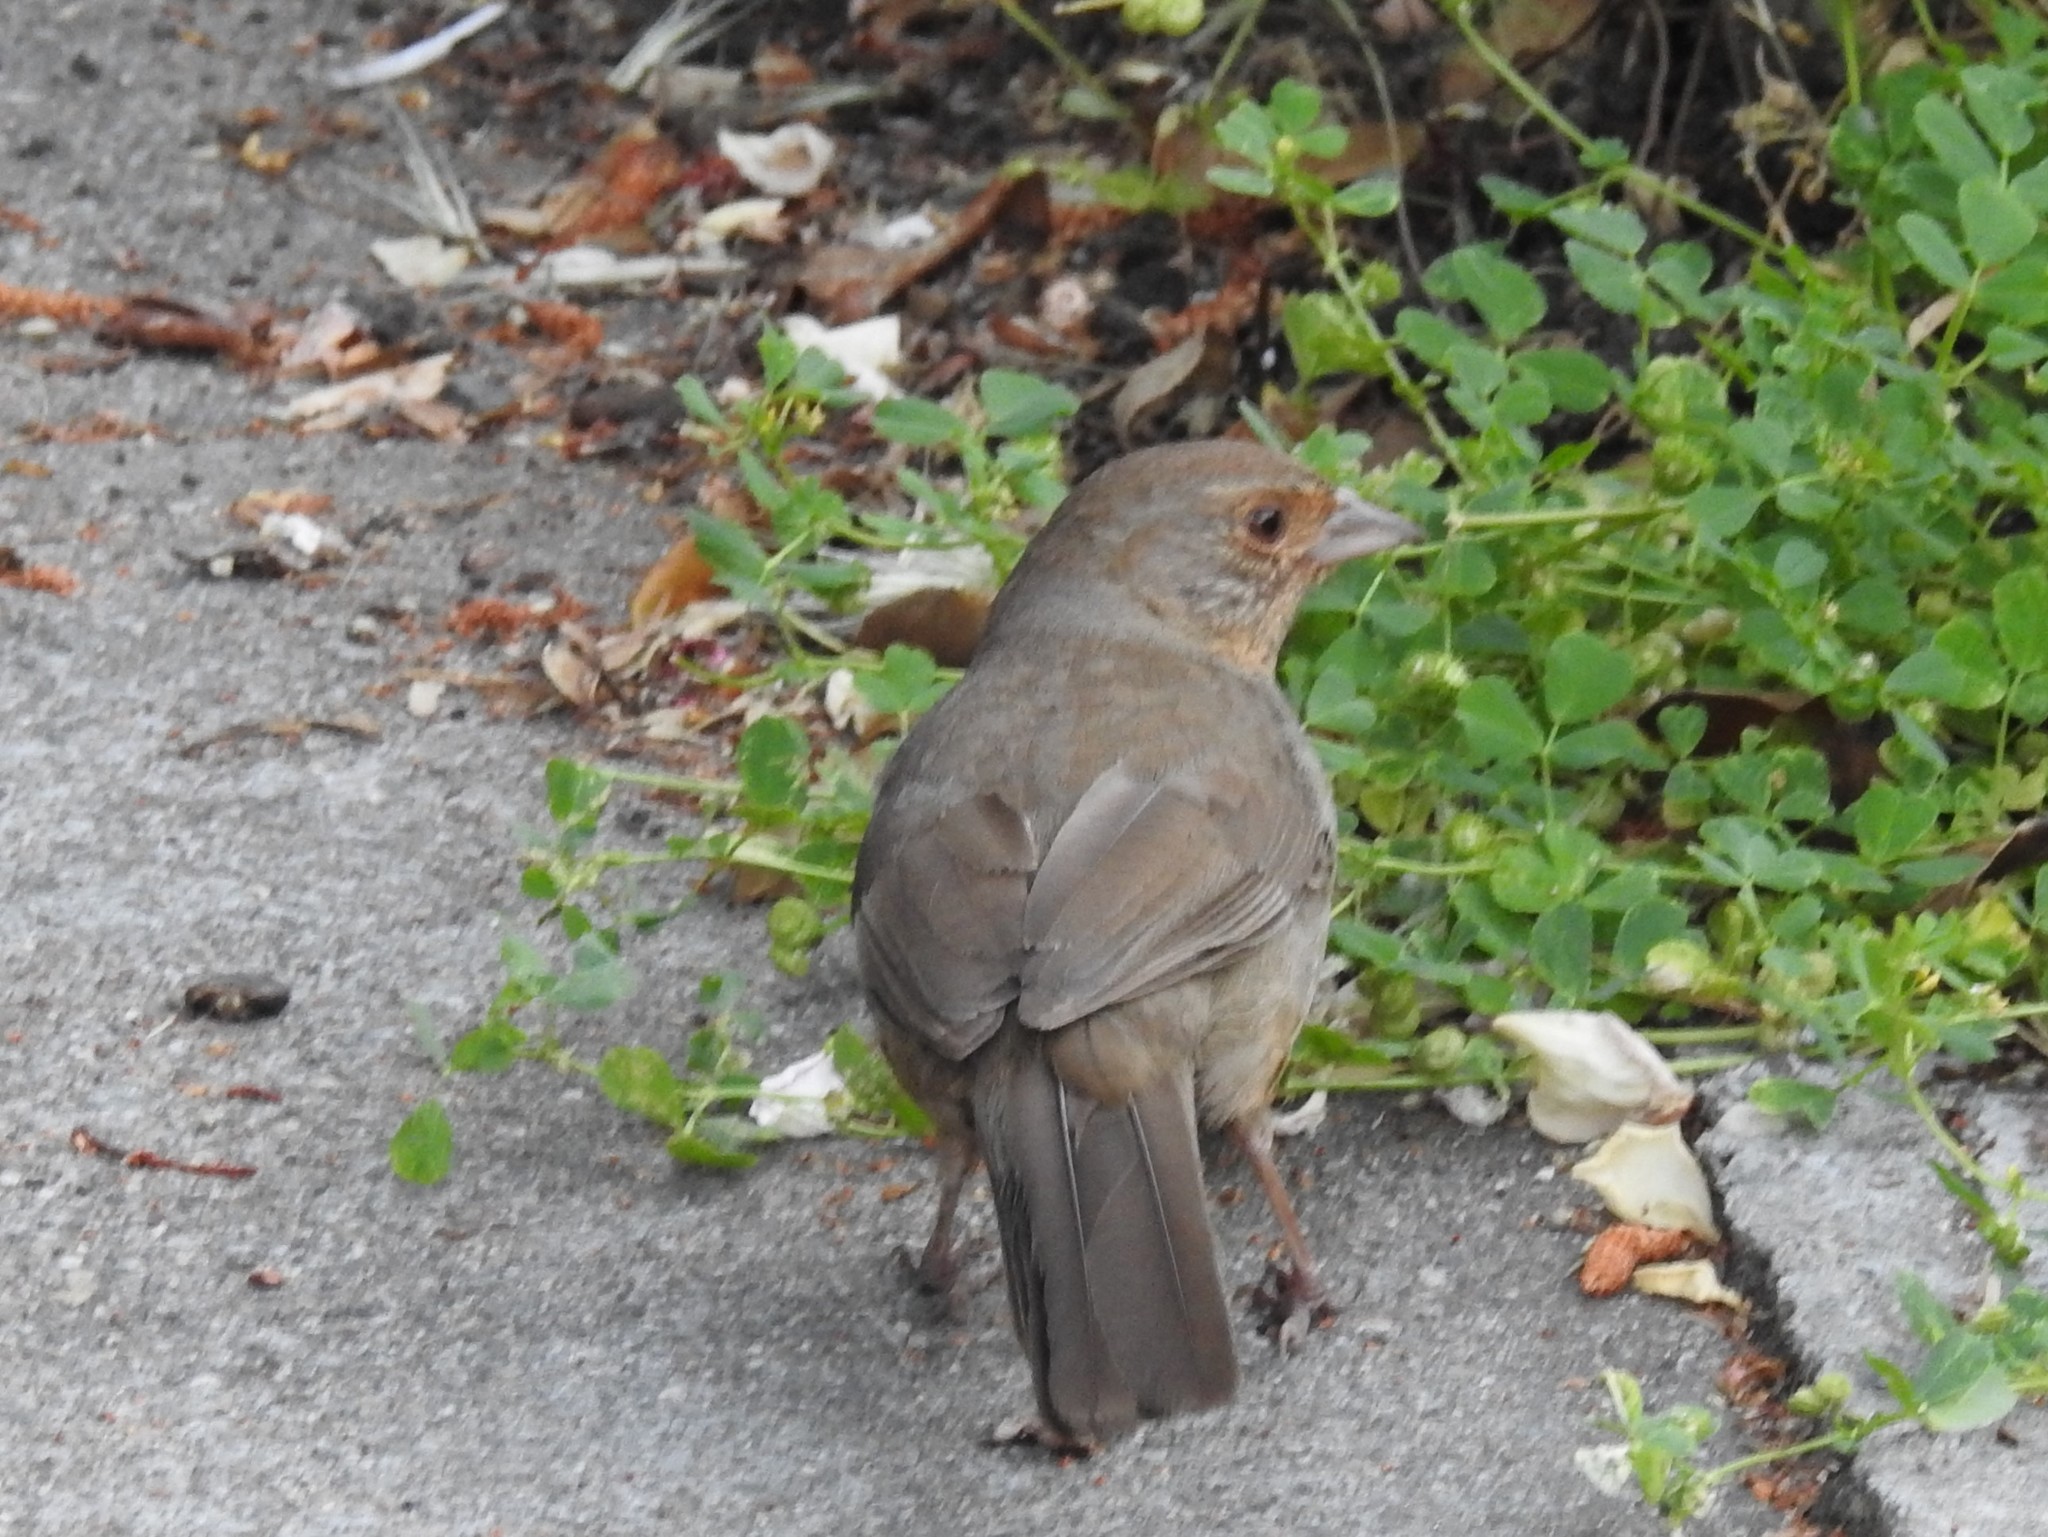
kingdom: Animalia
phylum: Chordata
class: Aves
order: Passeriformes
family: Passerellidae
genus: Melozone
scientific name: Melozone crissalis
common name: California towhee
